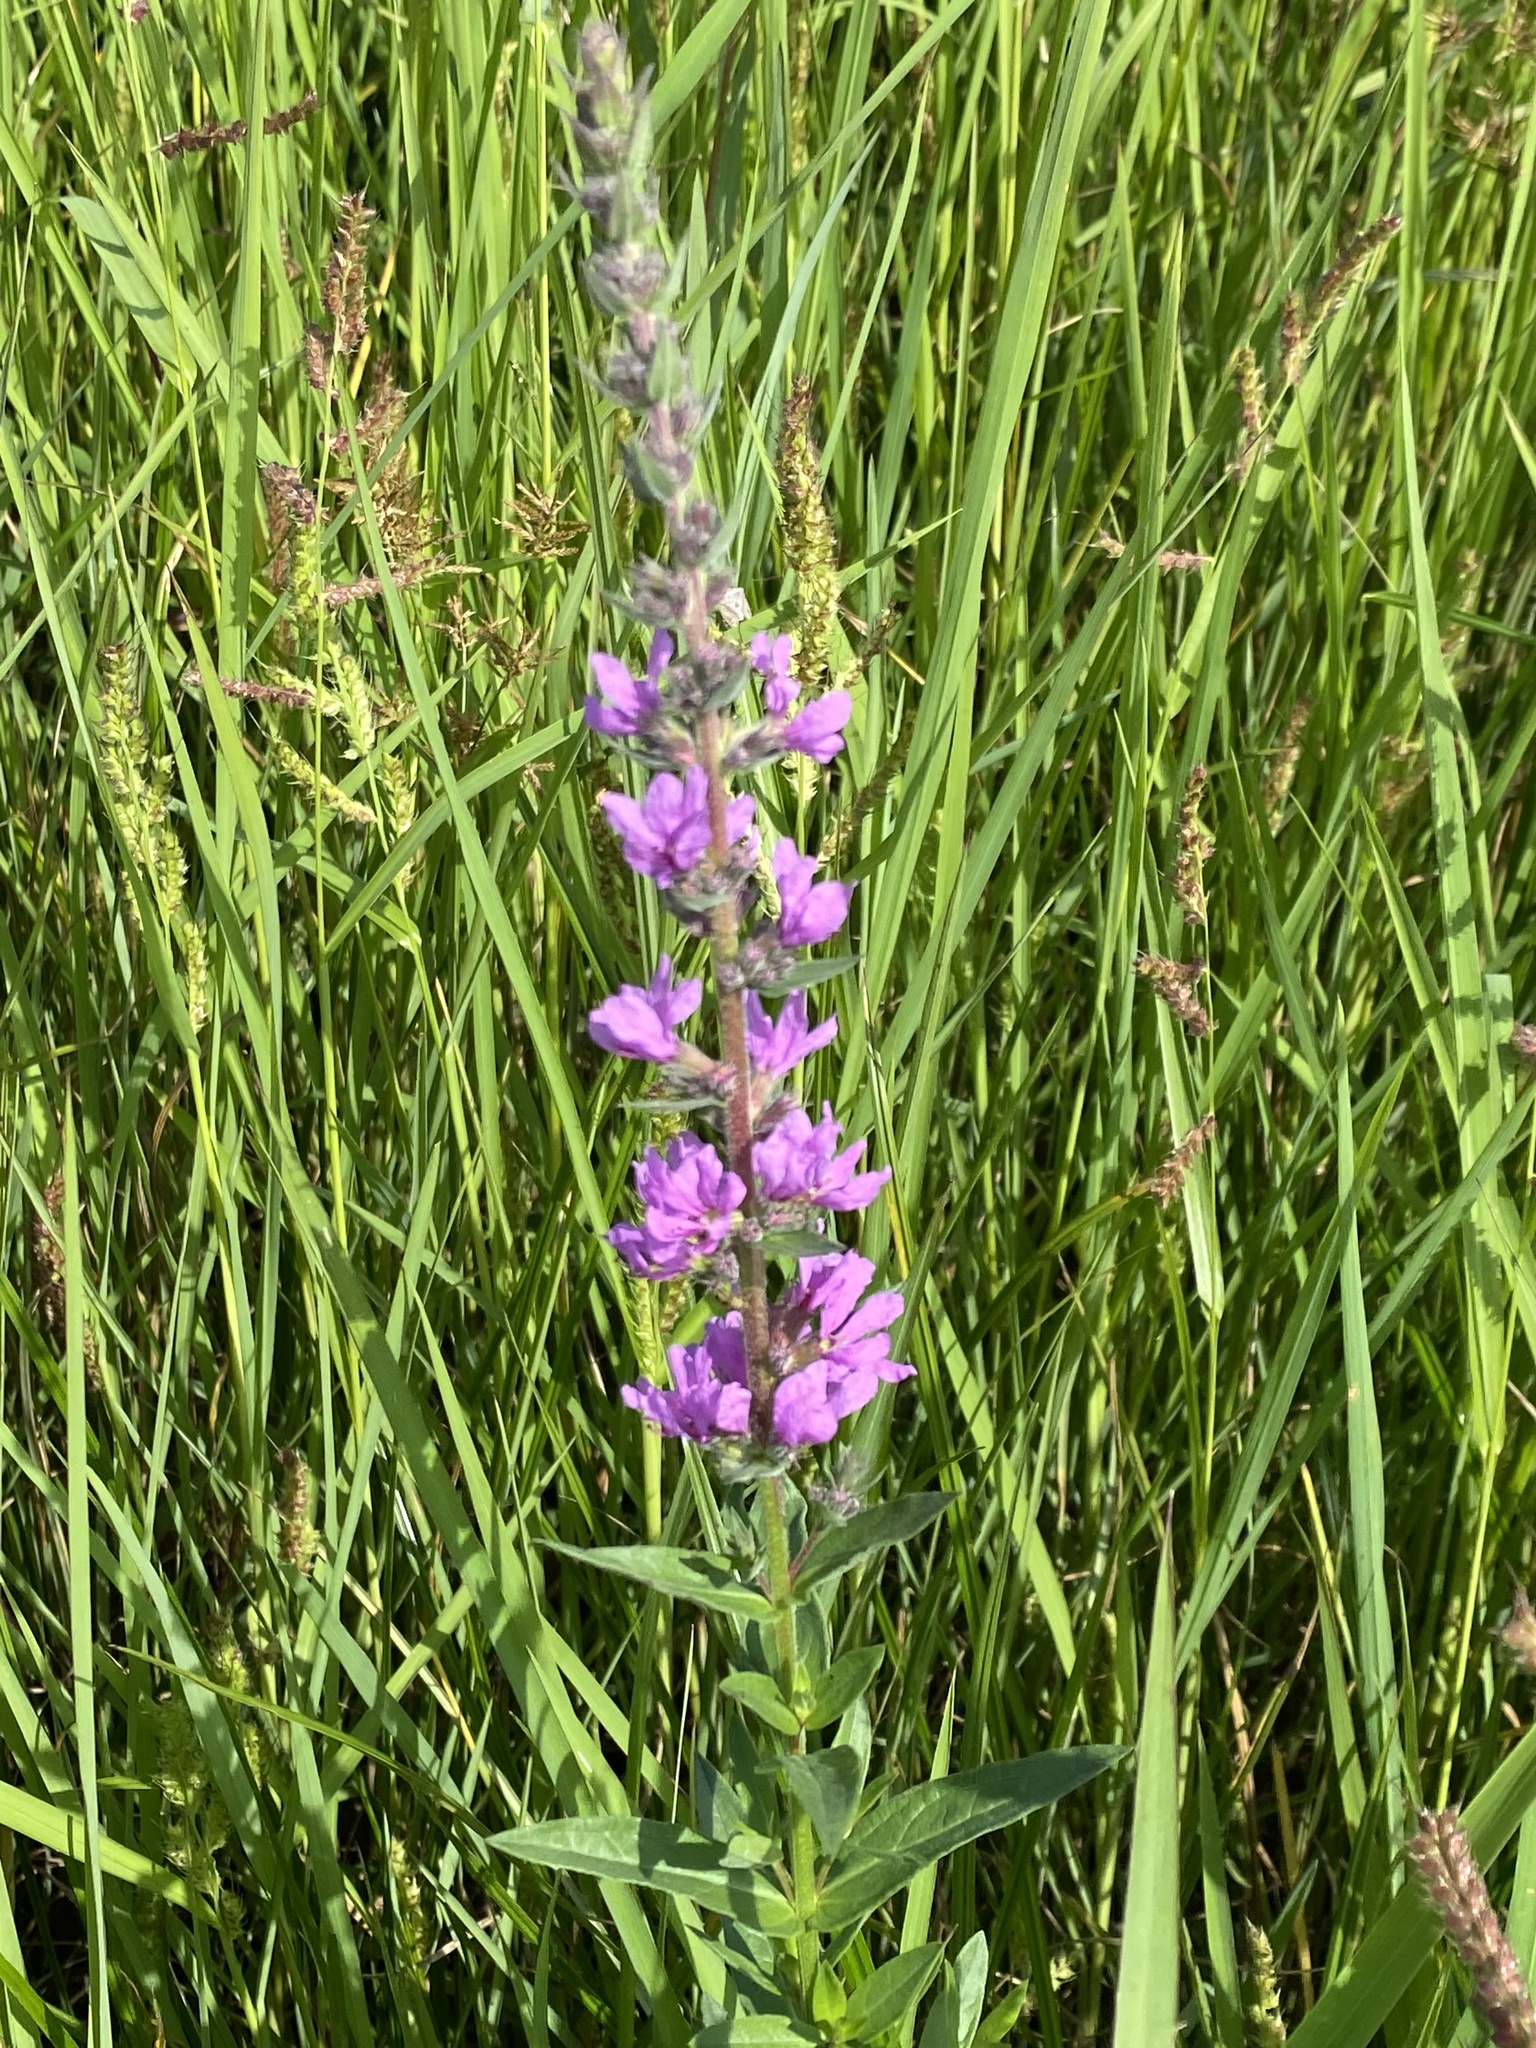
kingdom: Plantae
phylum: Tracheophyta
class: Magnoliopsida
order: Myrtales
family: Lythraceae
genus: Lythrum
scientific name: Lythrum salicaria
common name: Purple loosestrife
